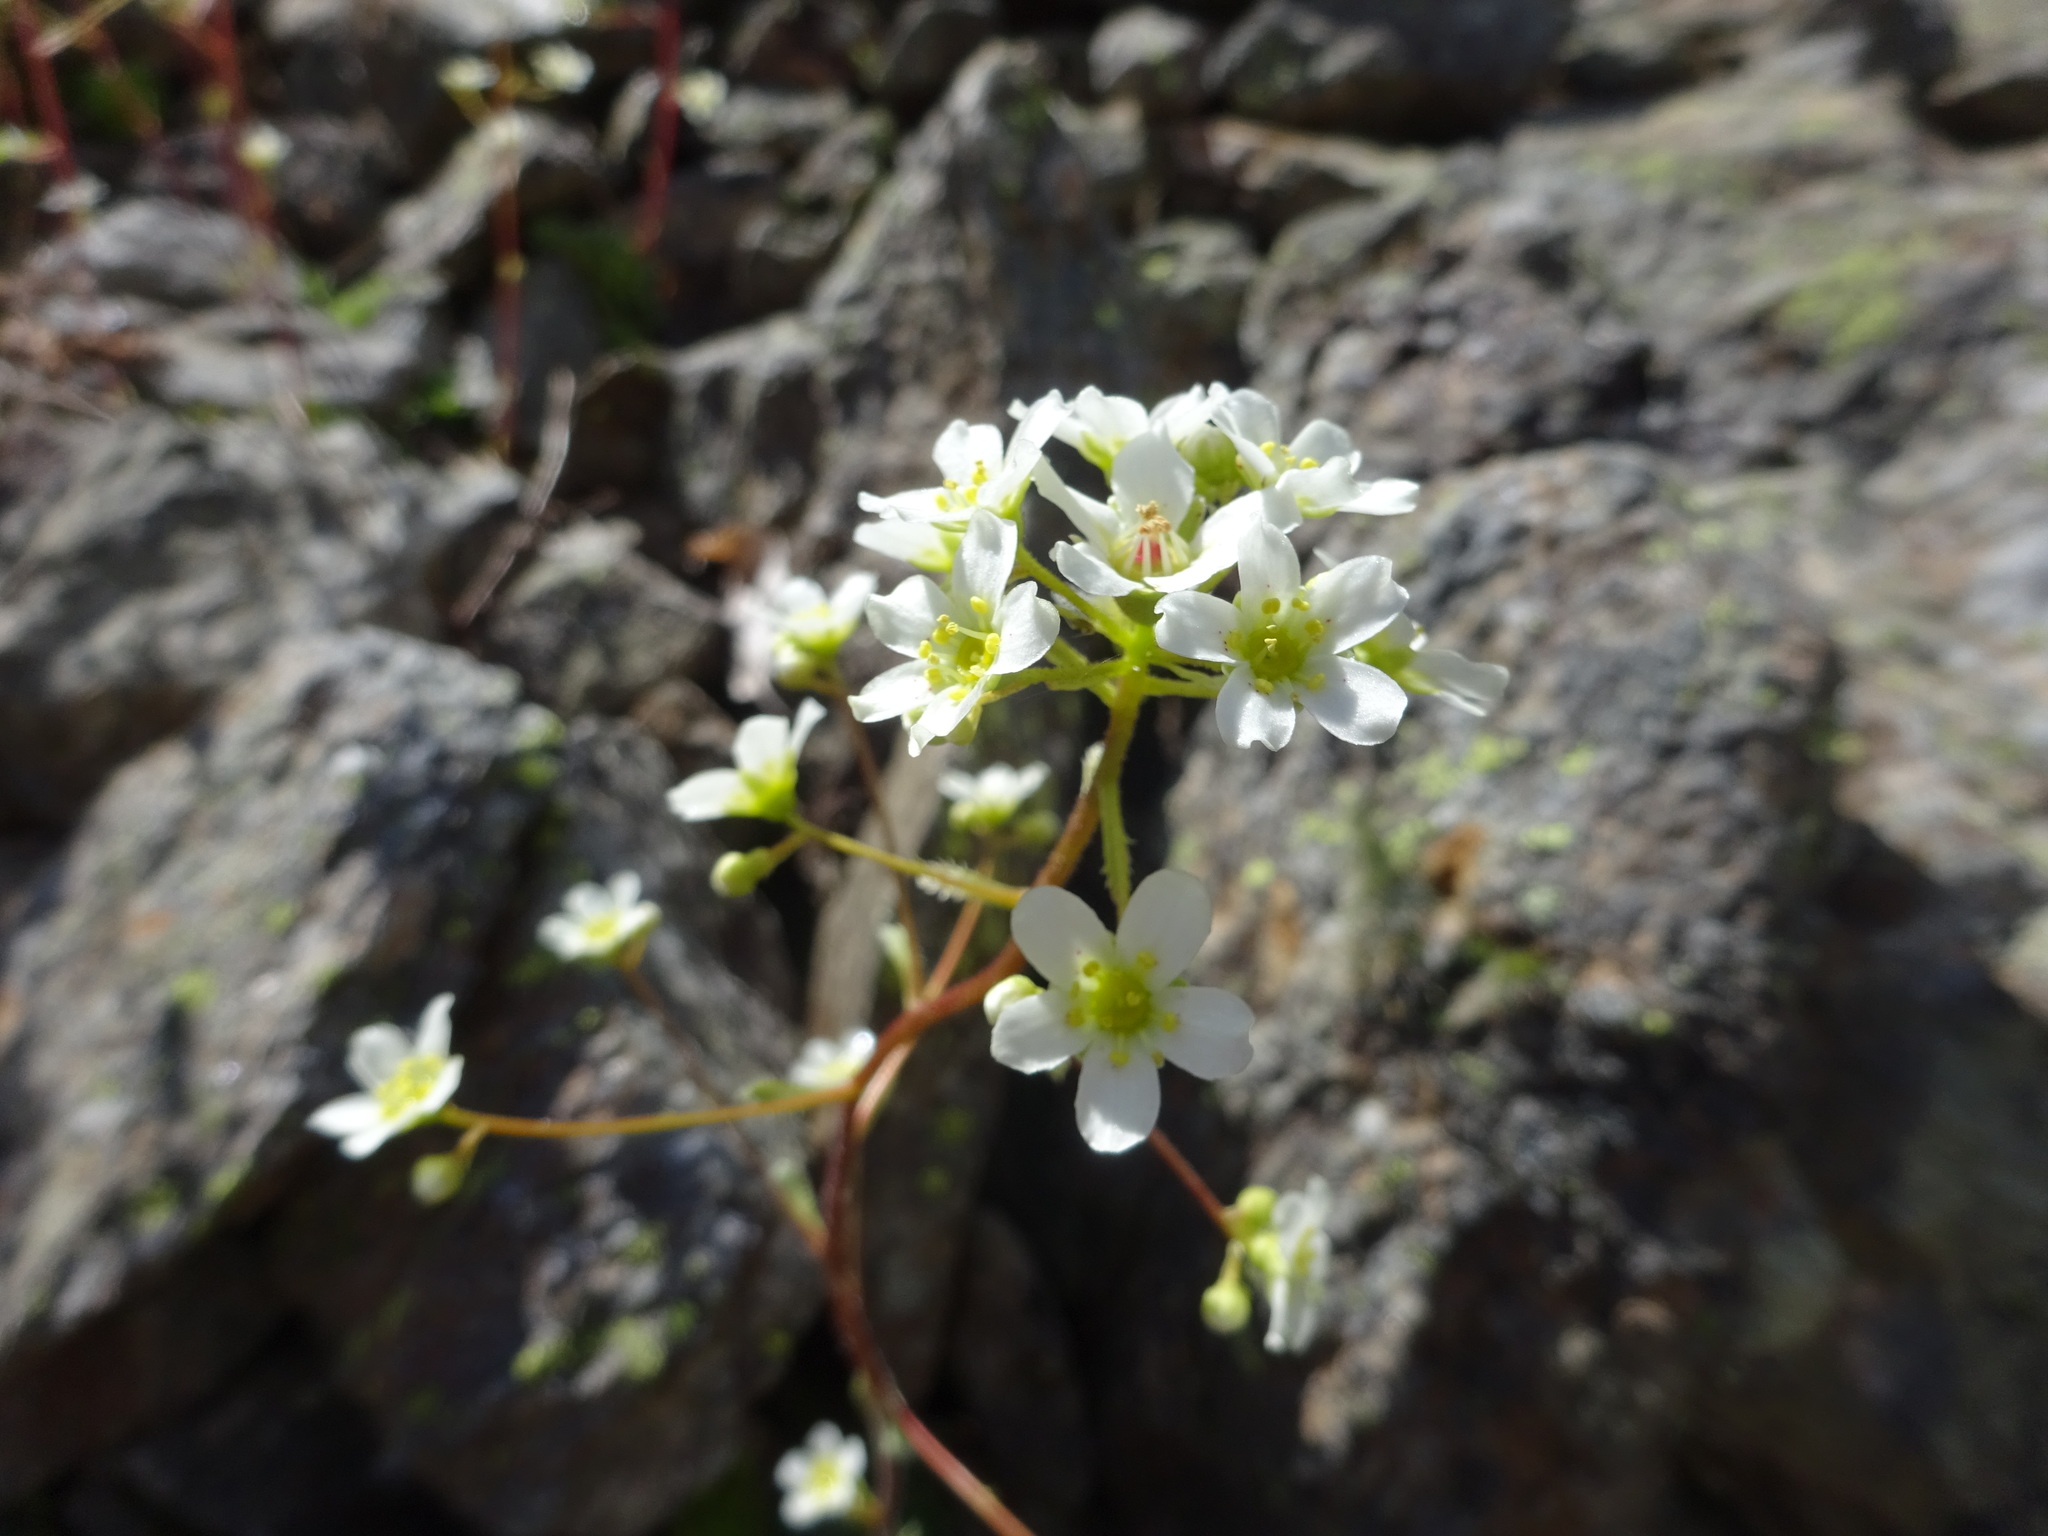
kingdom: Plantae
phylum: Tracheophyta
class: Magnoliopsida
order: Saxifragales
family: Saxifragaceae
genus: Saxifraga
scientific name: Saxifraga paniculata
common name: Livelong saxifrage
